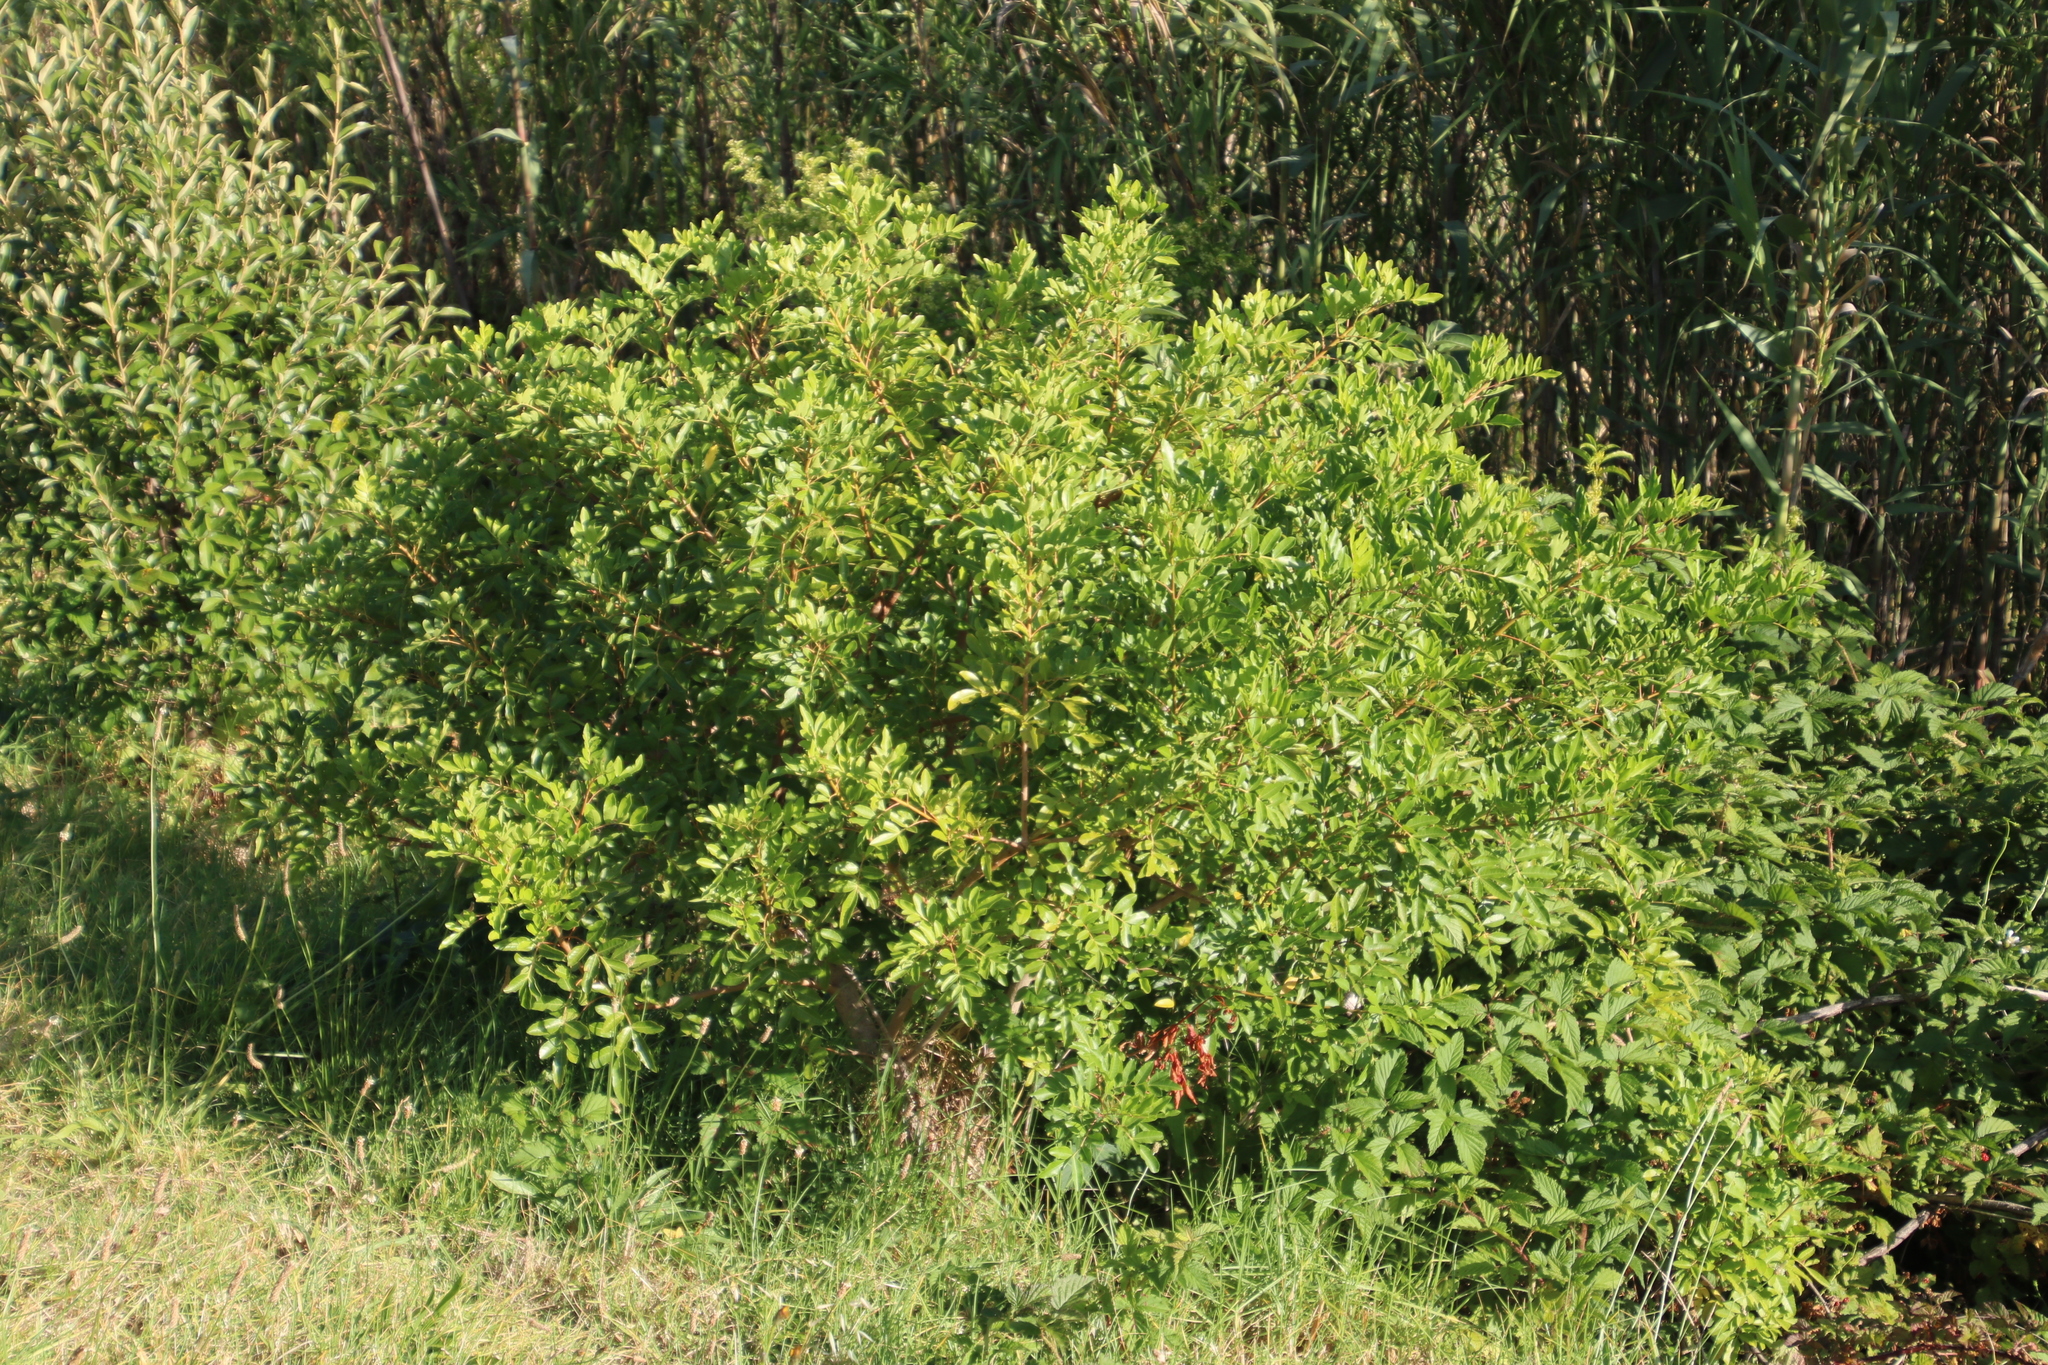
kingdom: Plantae
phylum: Tracheophyta
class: Magnoliopsida
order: Sapindales
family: Anacardiaceae
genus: Schinus
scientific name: Schinus terebinthifolia
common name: Brazilian peppertree
